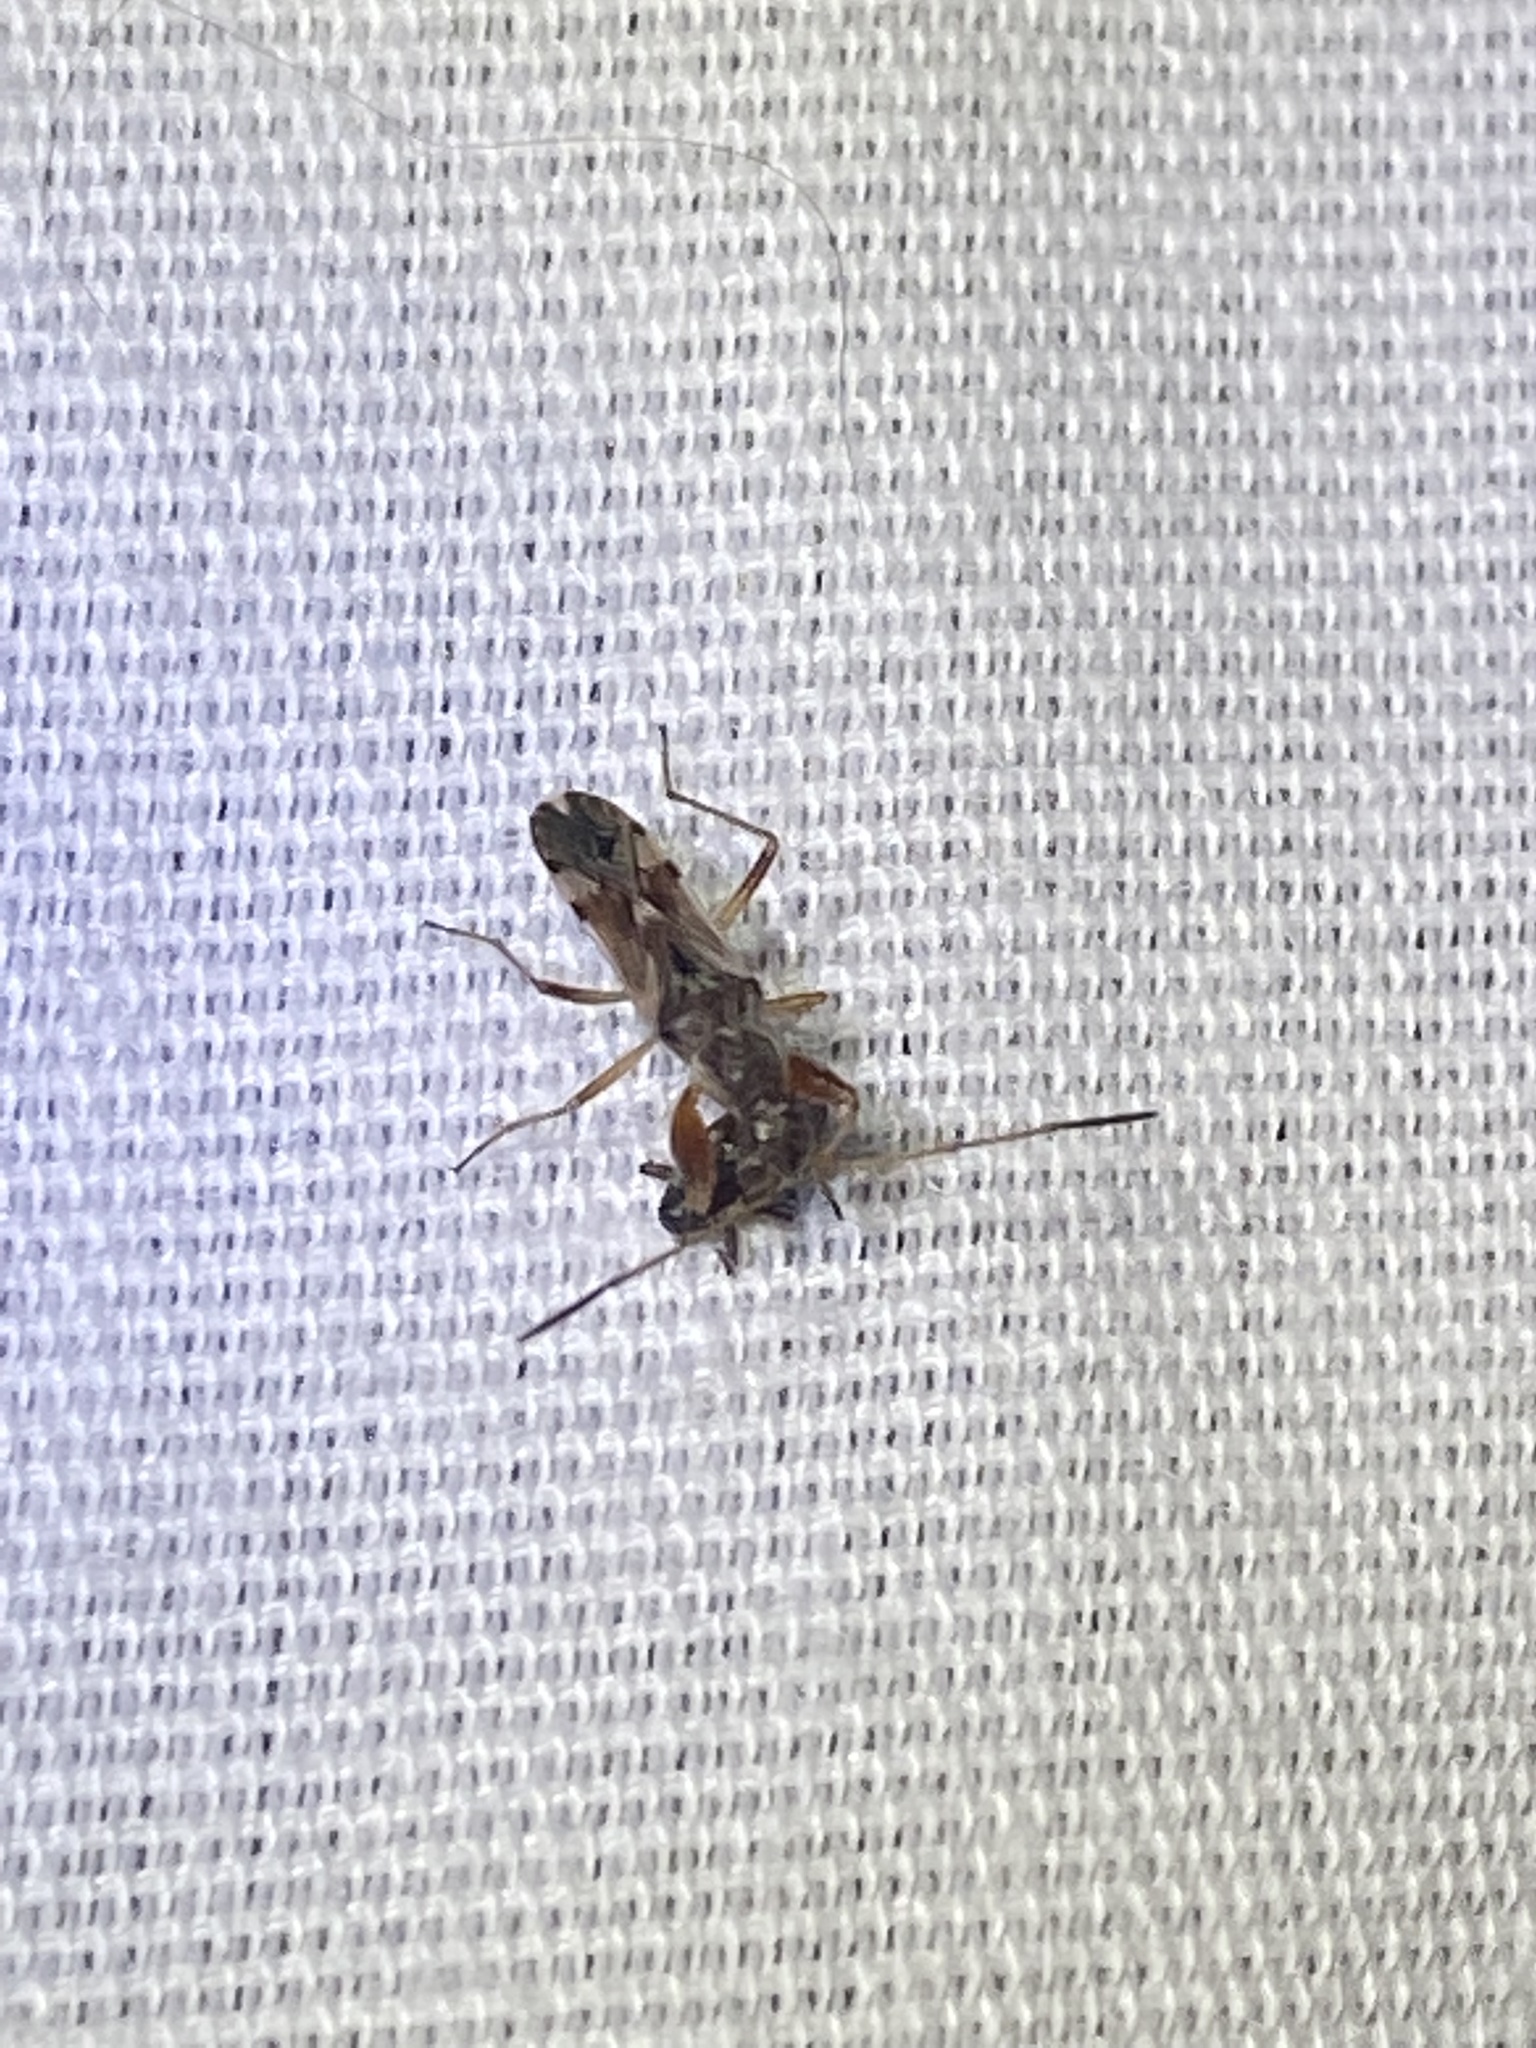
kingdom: Animalia
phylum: Arthropoda
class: Insecta
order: Hemiptera
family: Rhyparochromidae
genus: Neopamera
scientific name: Neopamera bilobata
